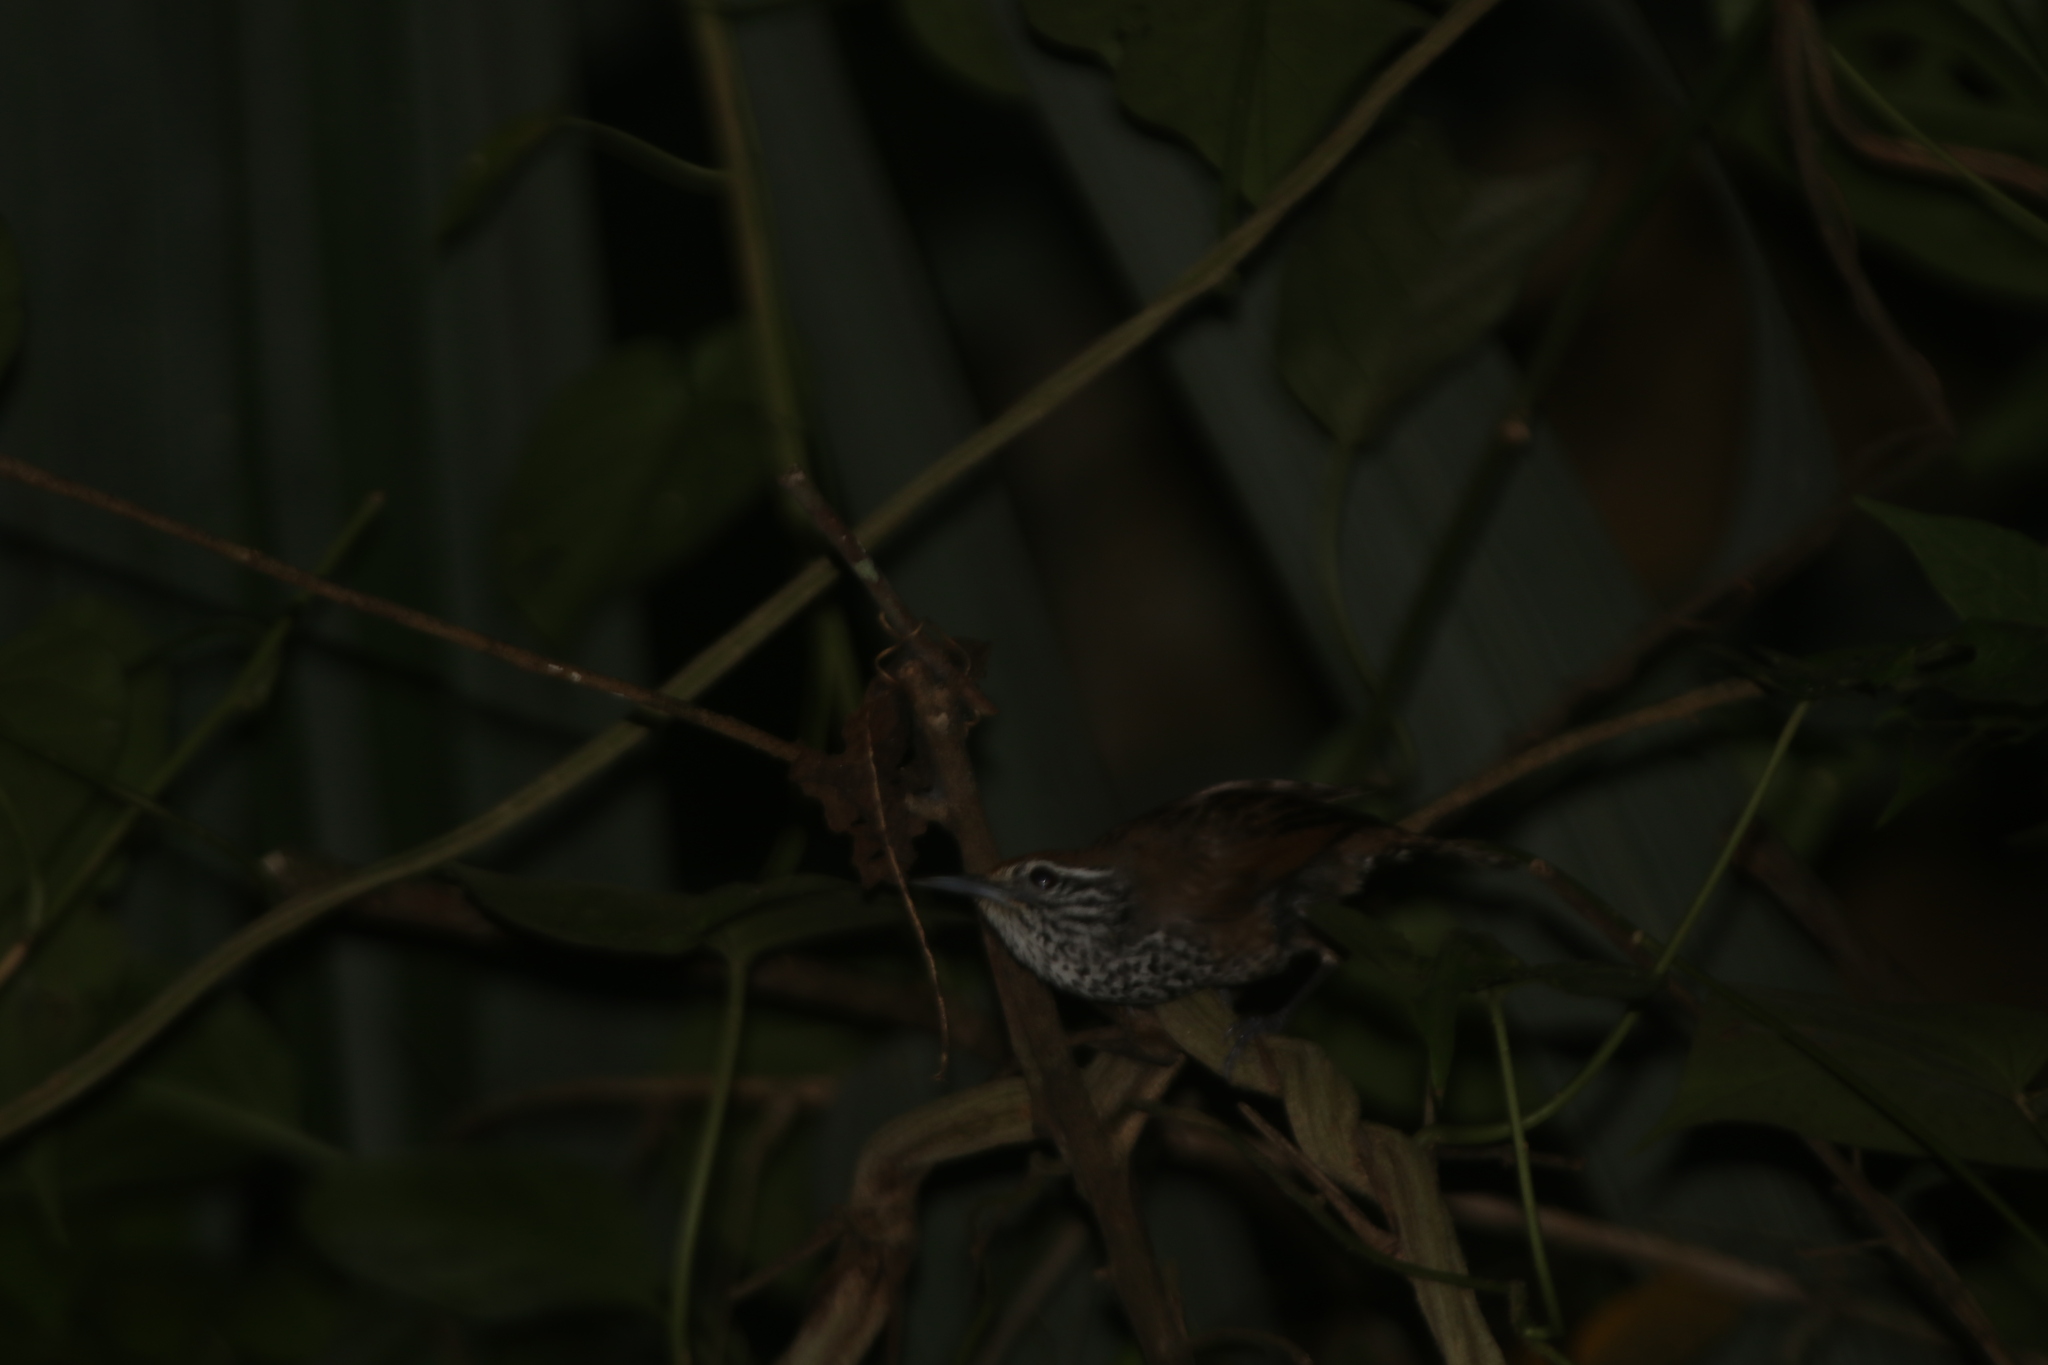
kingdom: Animalia
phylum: Chordata
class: Aves
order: Passeriformes
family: Troglodytidae
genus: Pheugopedius
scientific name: Pheugopedius maculipectus
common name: Spot-breasted wren
